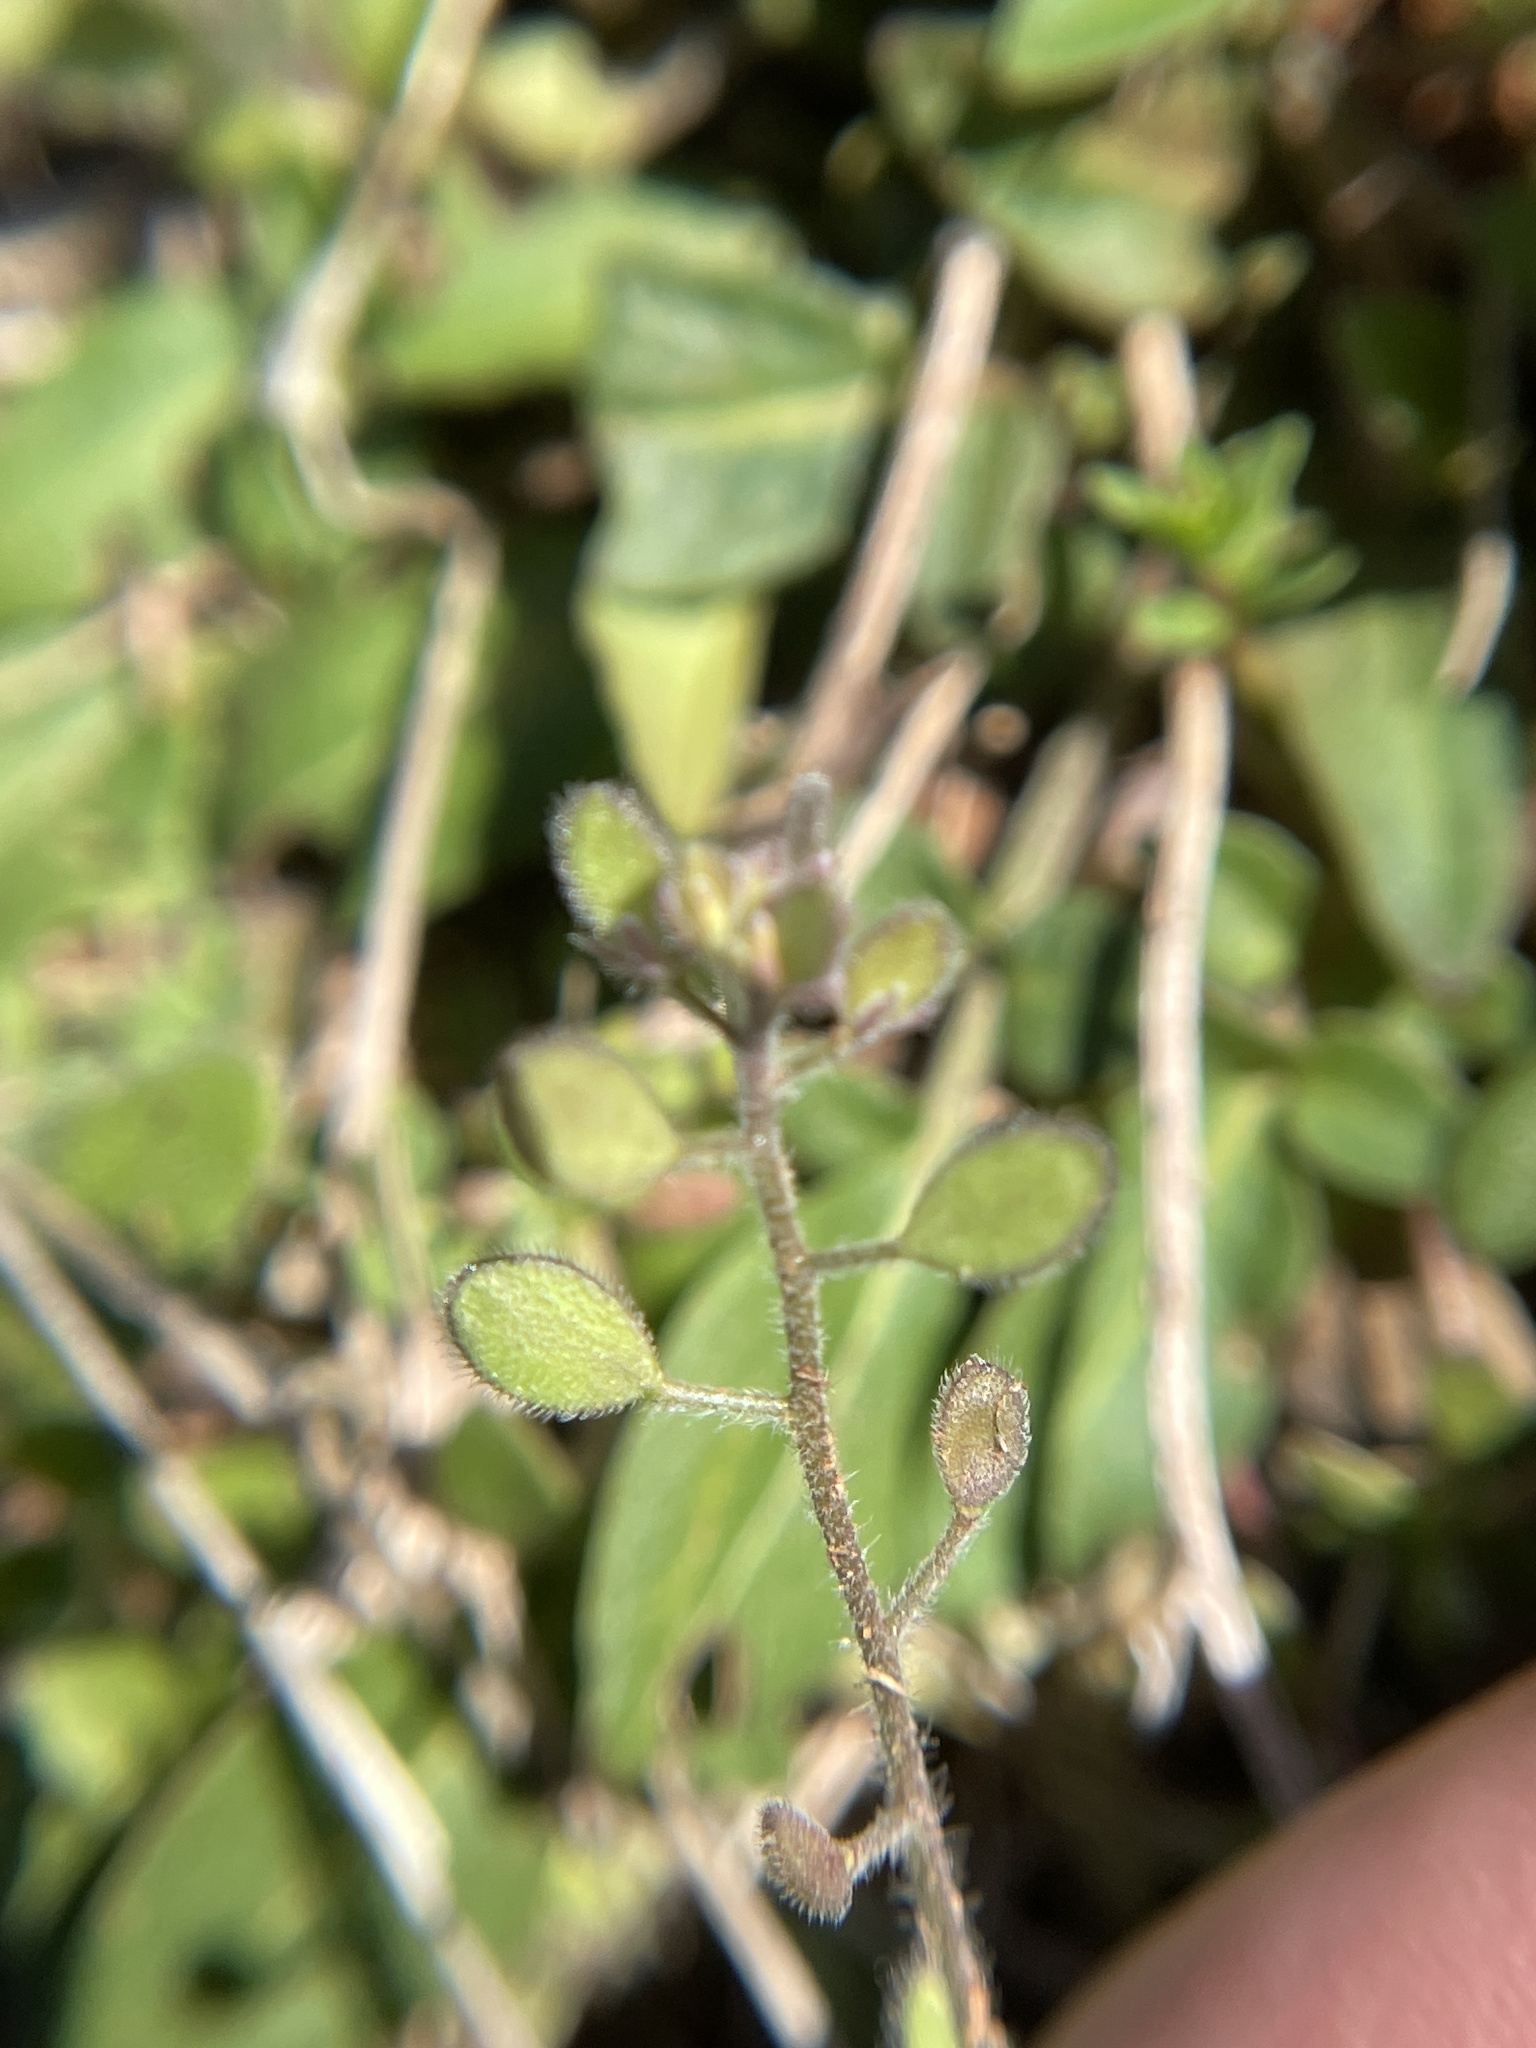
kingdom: Plantae
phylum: Tracheophyta
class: Magnoliopsida
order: Brassicales
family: Brassicaceae
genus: Tomostima
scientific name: Tomostima platycarpa
